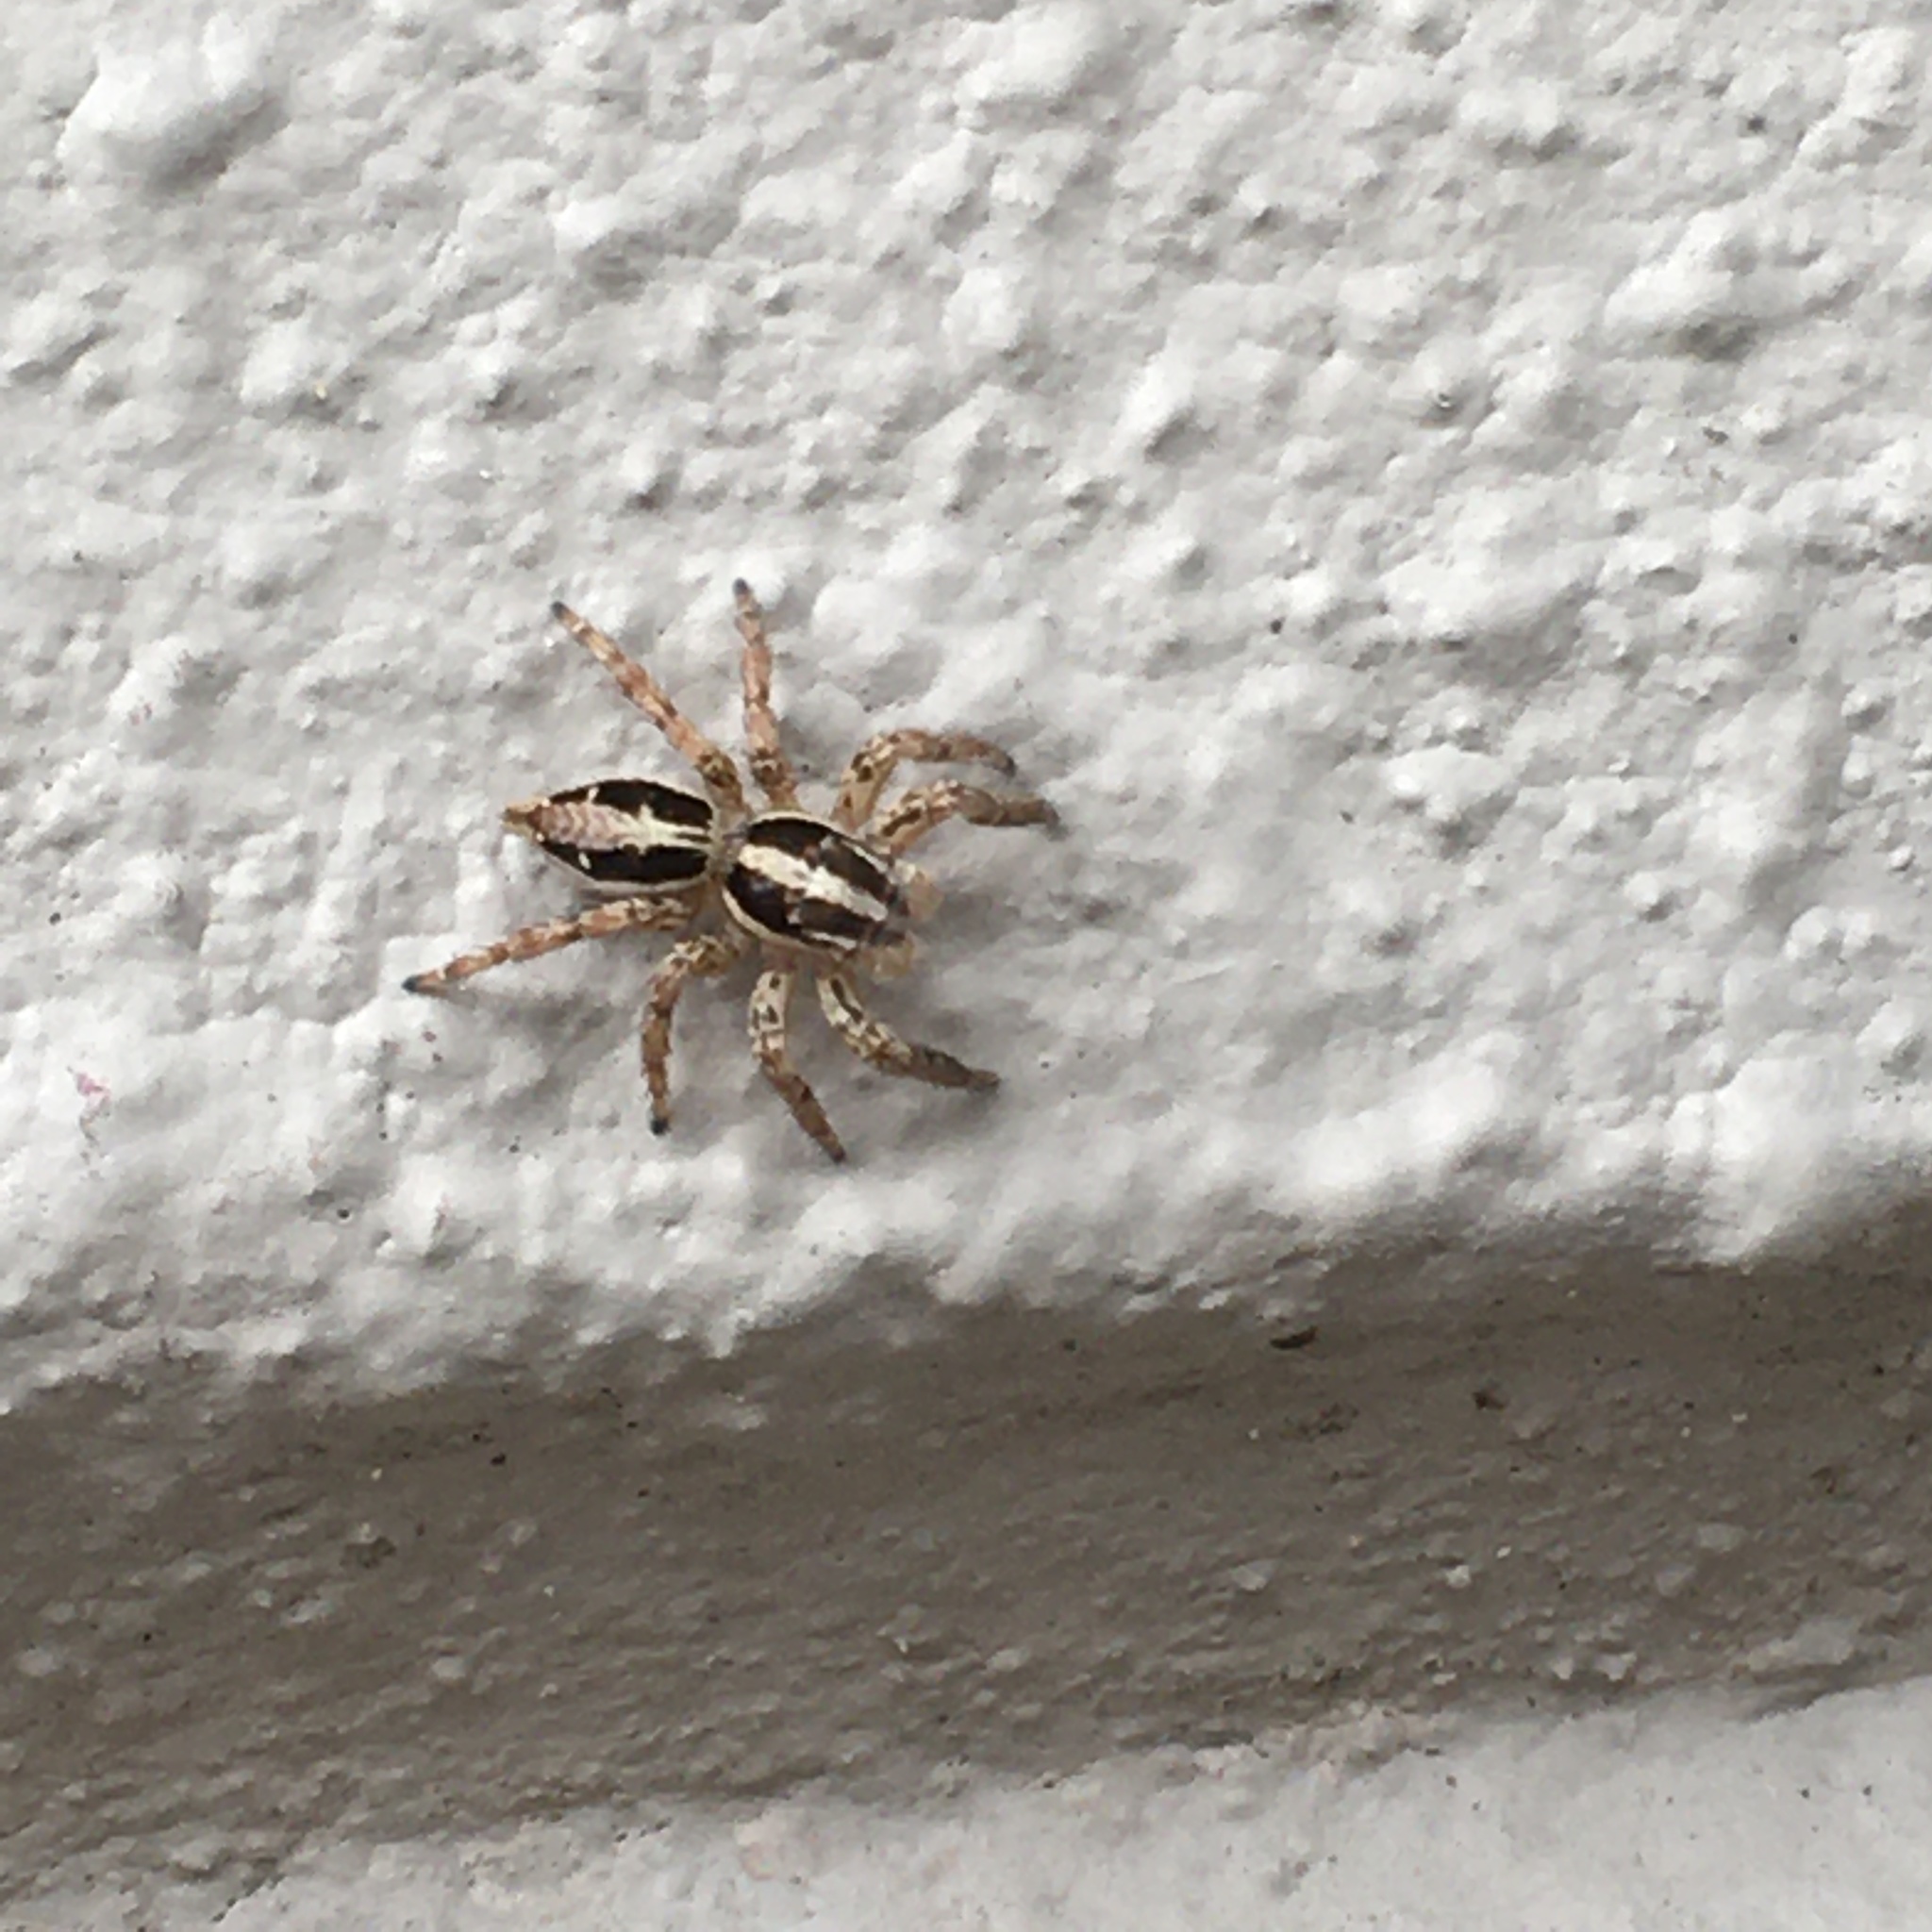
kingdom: Animalia
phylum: Arthropoda
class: Arachnida
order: Araneae
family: Salticidae
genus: Plexippus
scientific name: Plexippus paykulli
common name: Pantropical jumper
